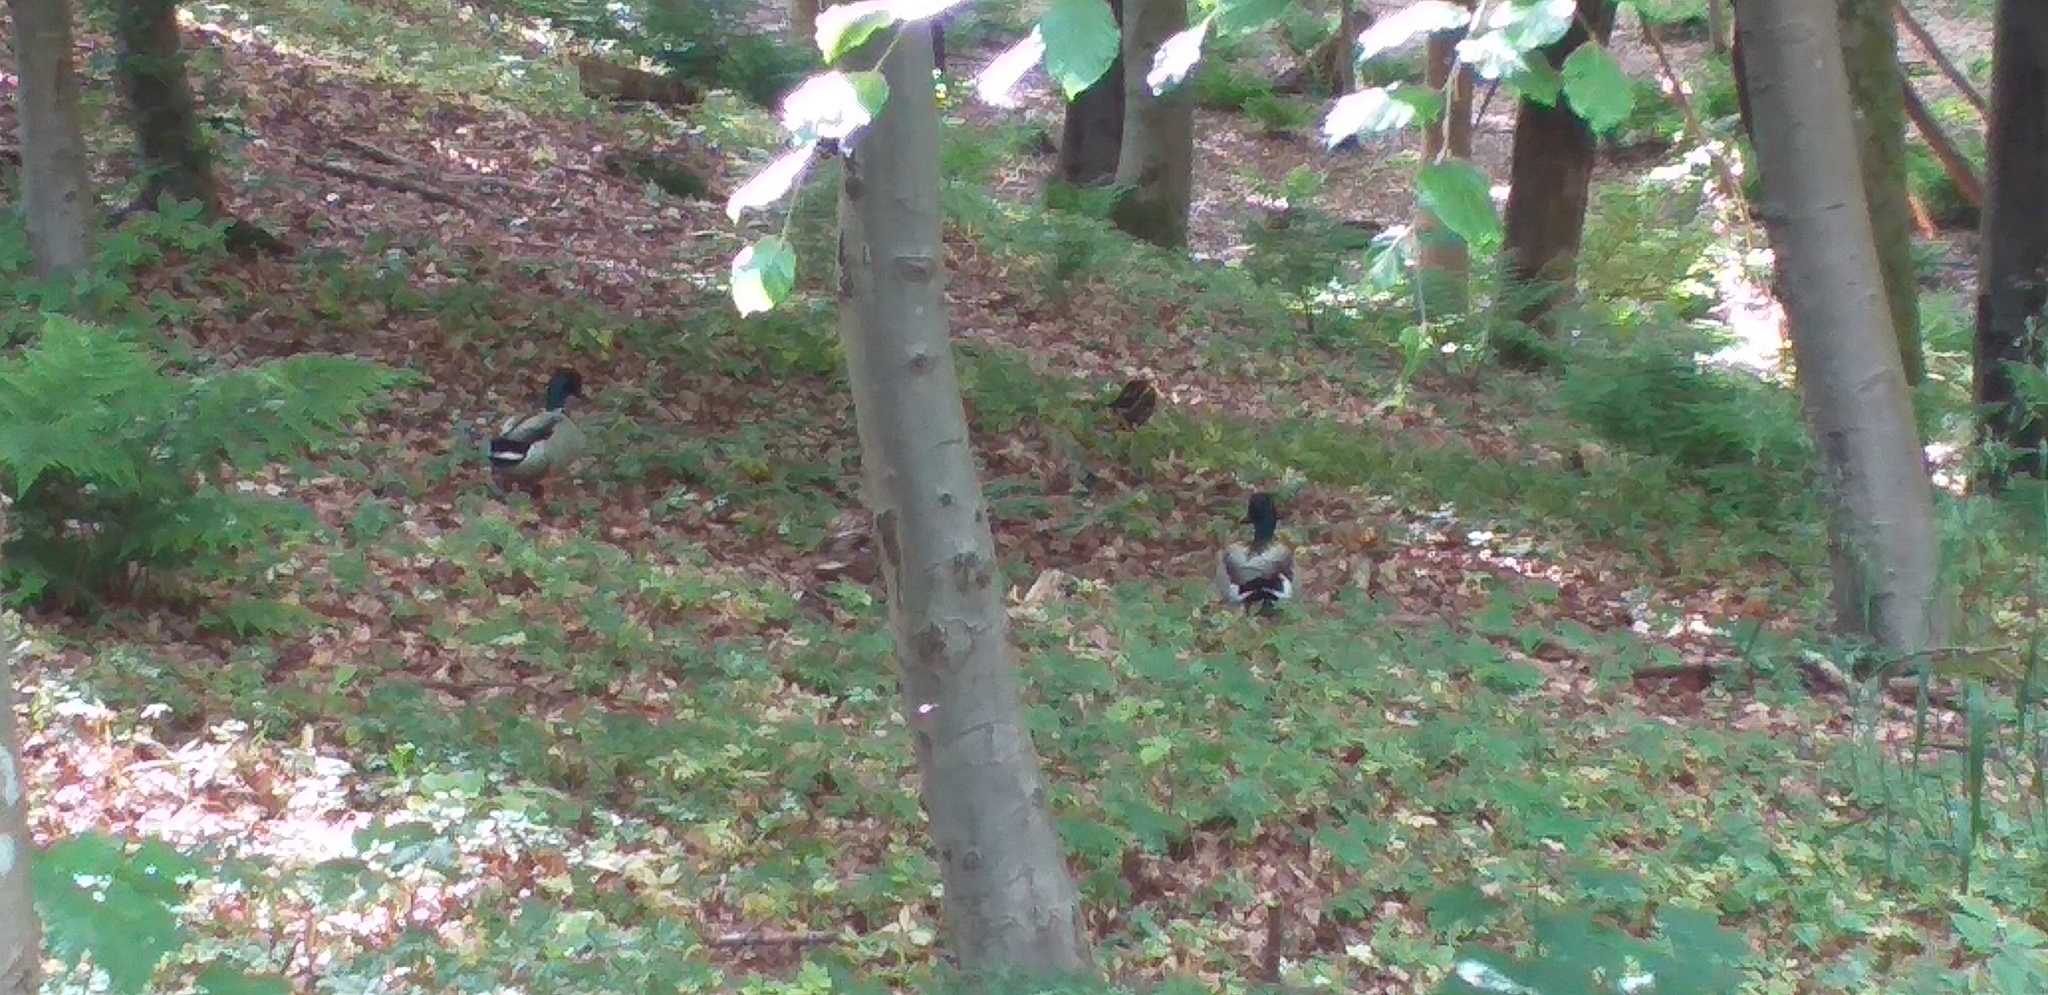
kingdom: Animalia
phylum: Chordata
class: Aves
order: Anseriformes
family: Anatidae
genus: Anas
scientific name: Anas platyrhynchos
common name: Mallard
